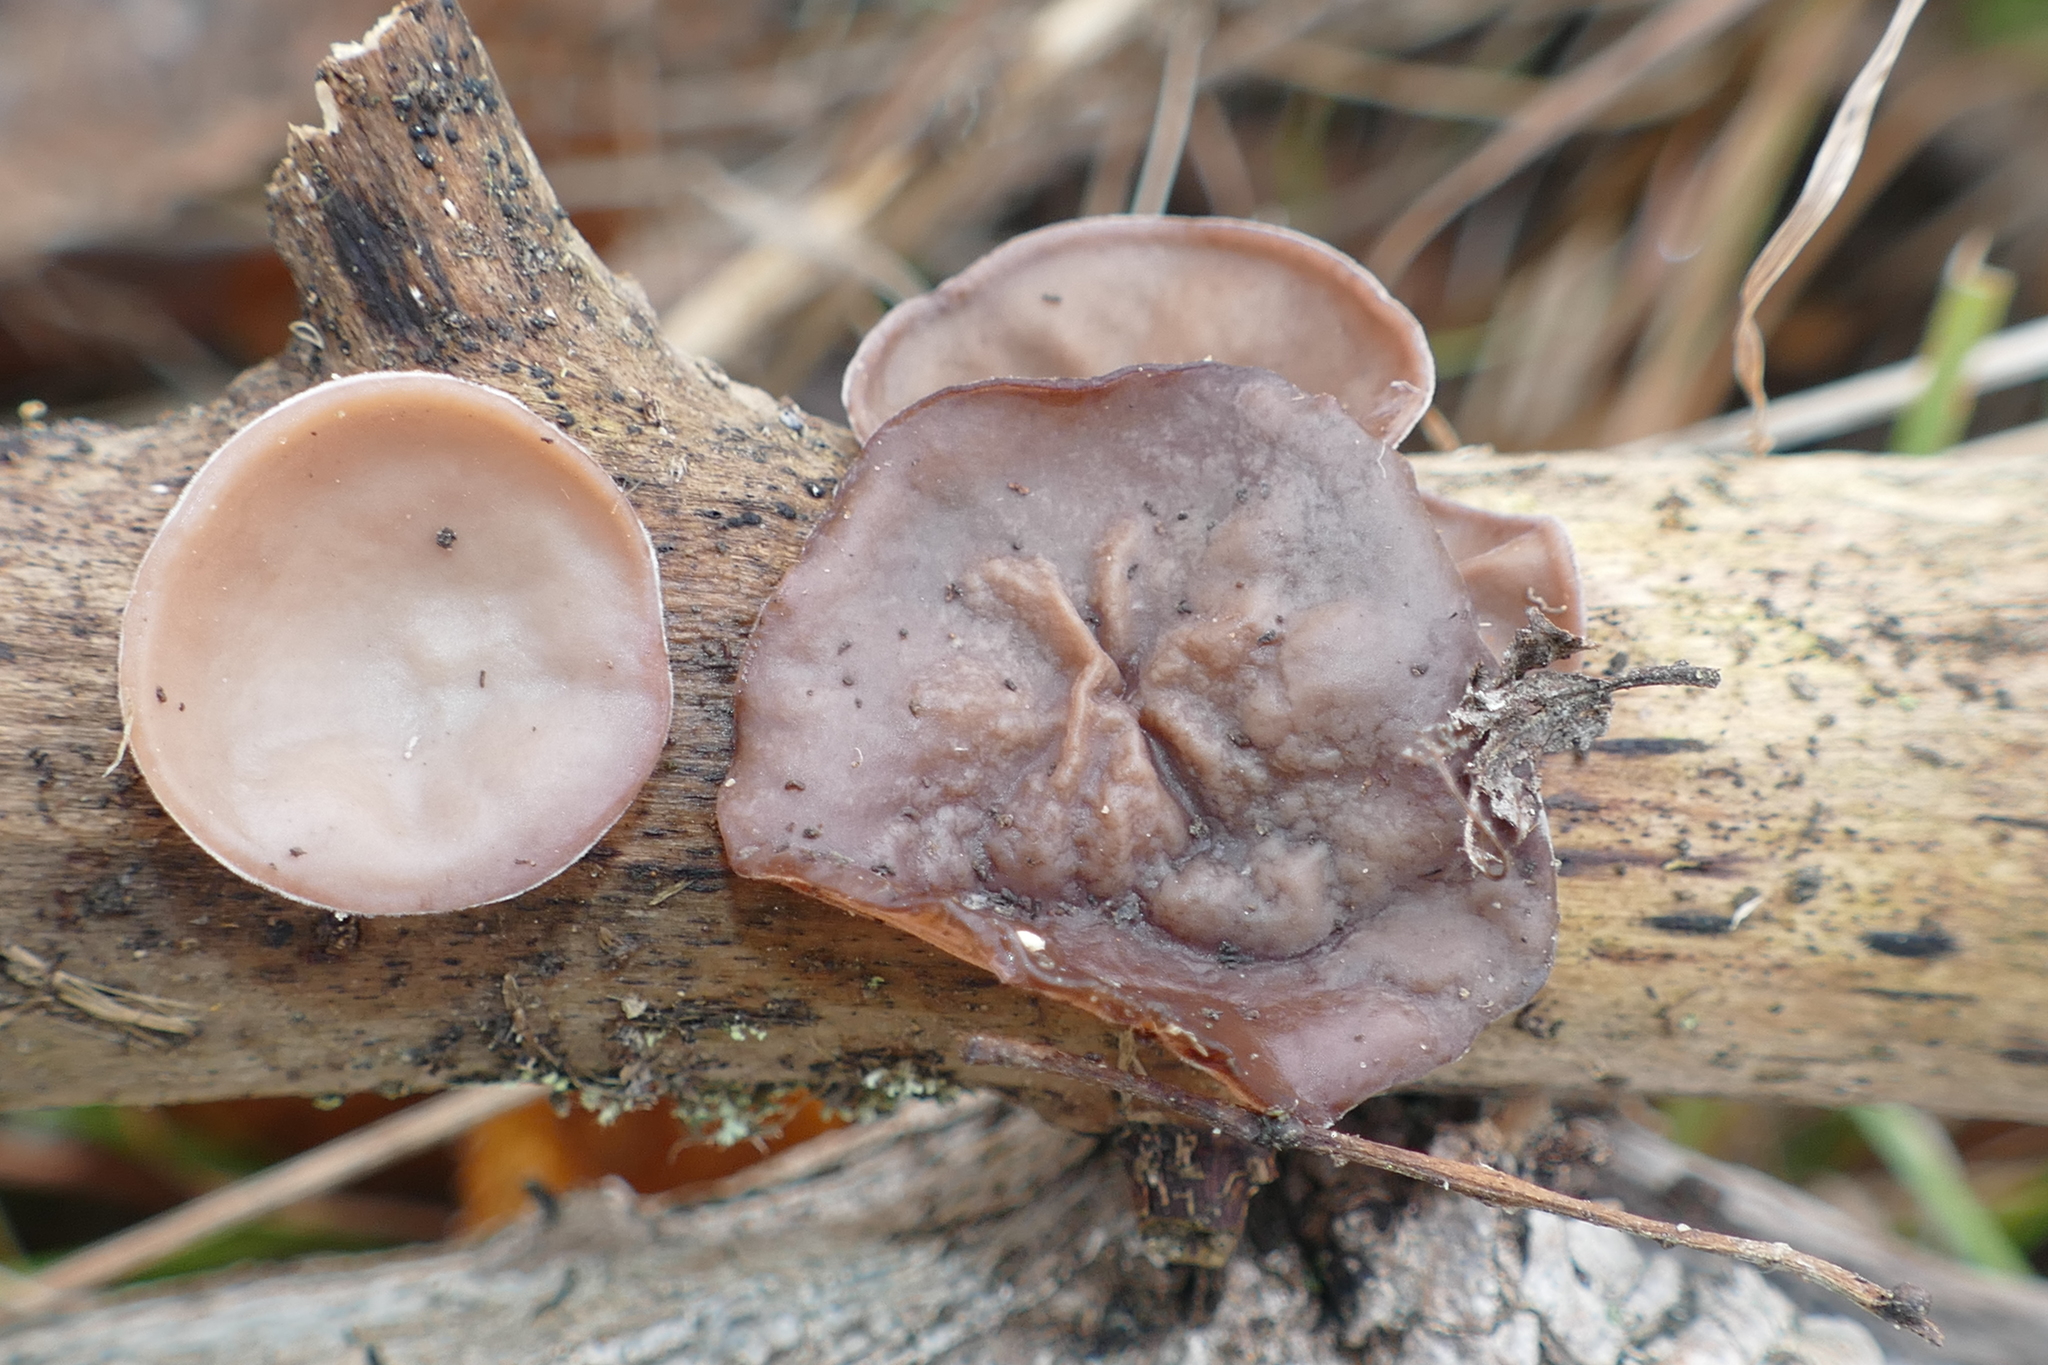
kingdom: Fungi
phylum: Basidiomycota
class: Agaricomycetes
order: Auriculariales
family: Auriculariaceae
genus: Auricularia
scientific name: Auricularia auricula-judae
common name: Jelly ear
